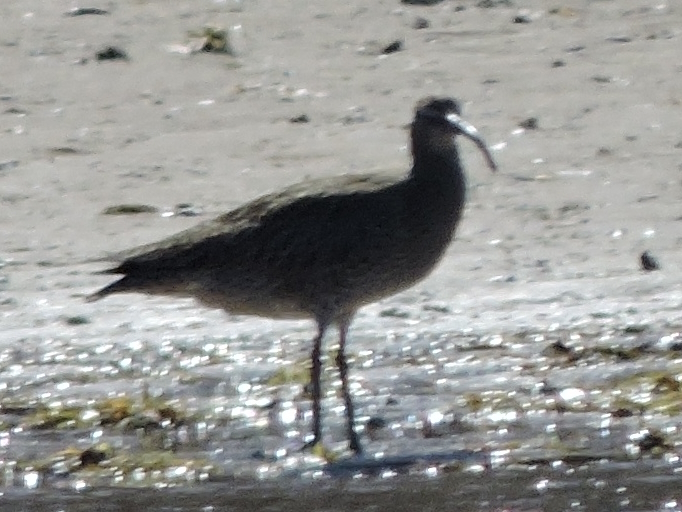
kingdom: Animalia
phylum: Chordata
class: Aves
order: Charadriiformes
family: Scolopacidae
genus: Numenius
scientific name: Numenius phaeopus
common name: Whimbrel
